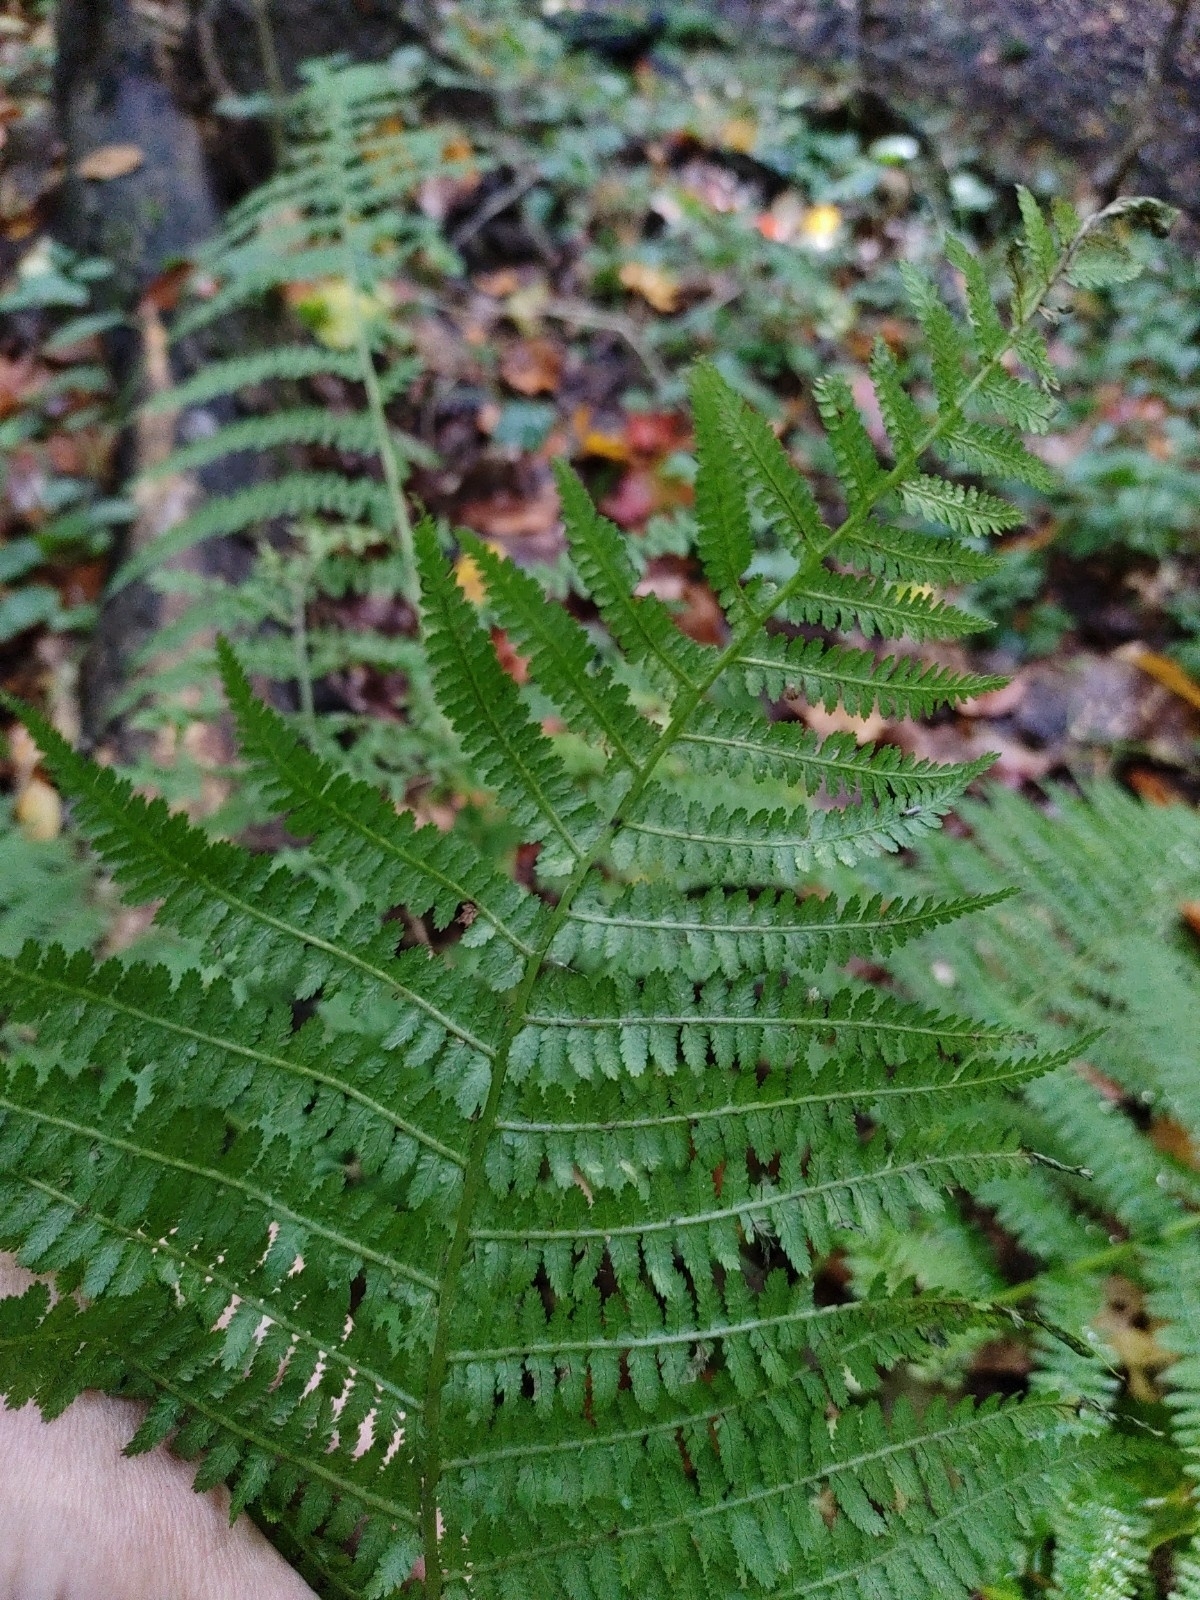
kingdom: Plantae
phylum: Tracheophyta
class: Polypodiopsida
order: Polypodiales
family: Athyriaceae
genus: Athyrium
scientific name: Athyrium filix-femina
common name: Lady fern
